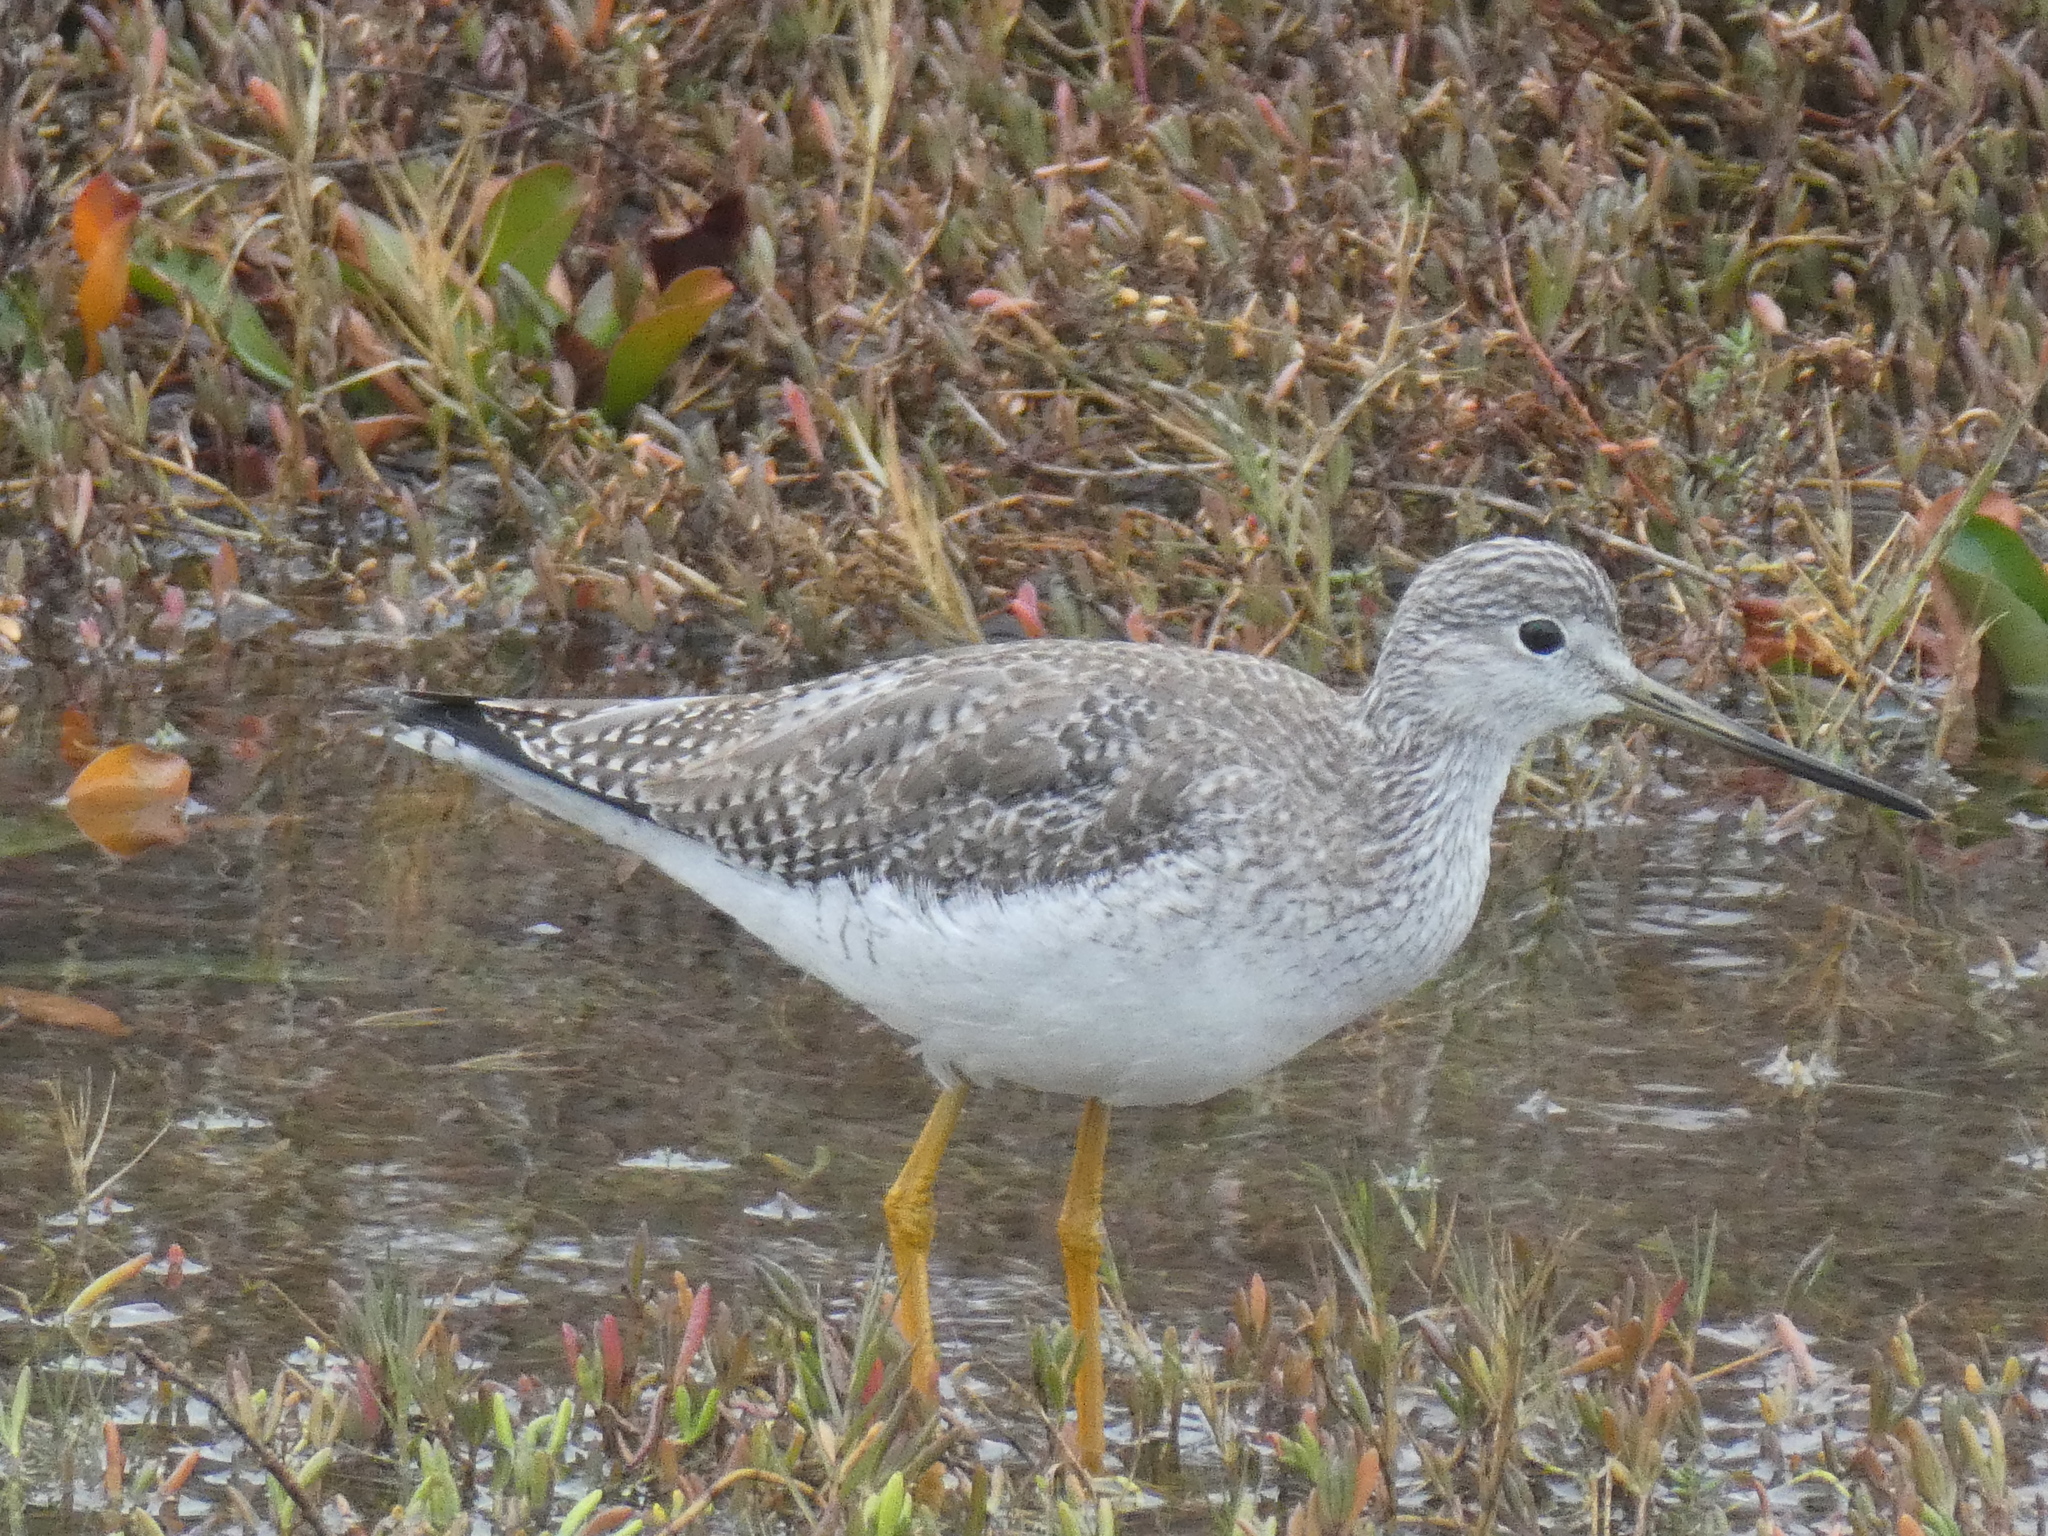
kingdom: Animalia
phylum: Chordata
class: Aves
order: Charadriiformes
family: Scolopacidae
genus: Tringa
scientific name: Tringa melanoleuca
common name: Greater yellowlegs
